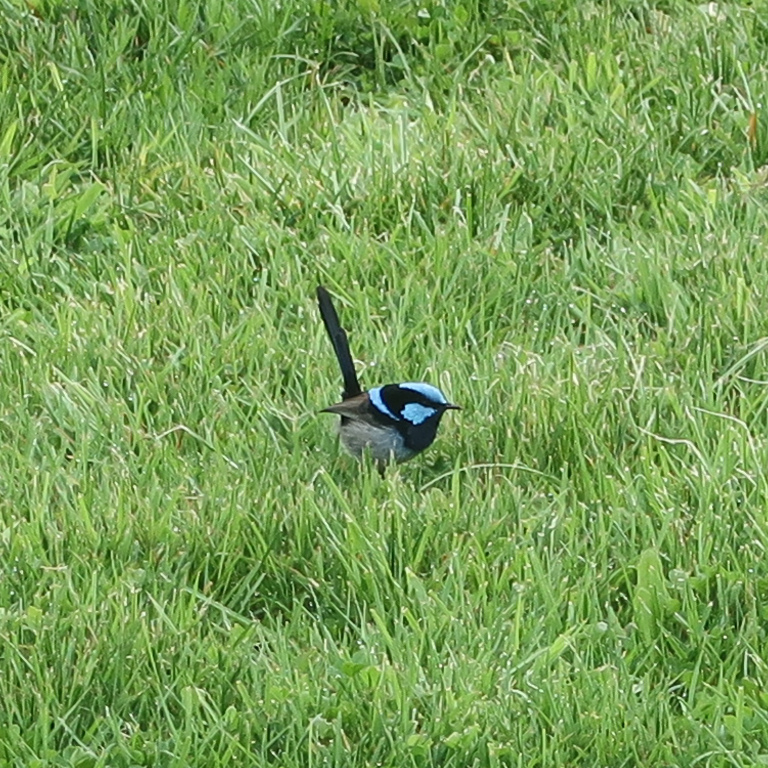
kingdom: Animalia
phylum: Chordata
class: Aves
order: Passeriformes
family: Maluridae
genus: Malurus
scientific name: Malurus cyaneus
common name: Superb fairywren
